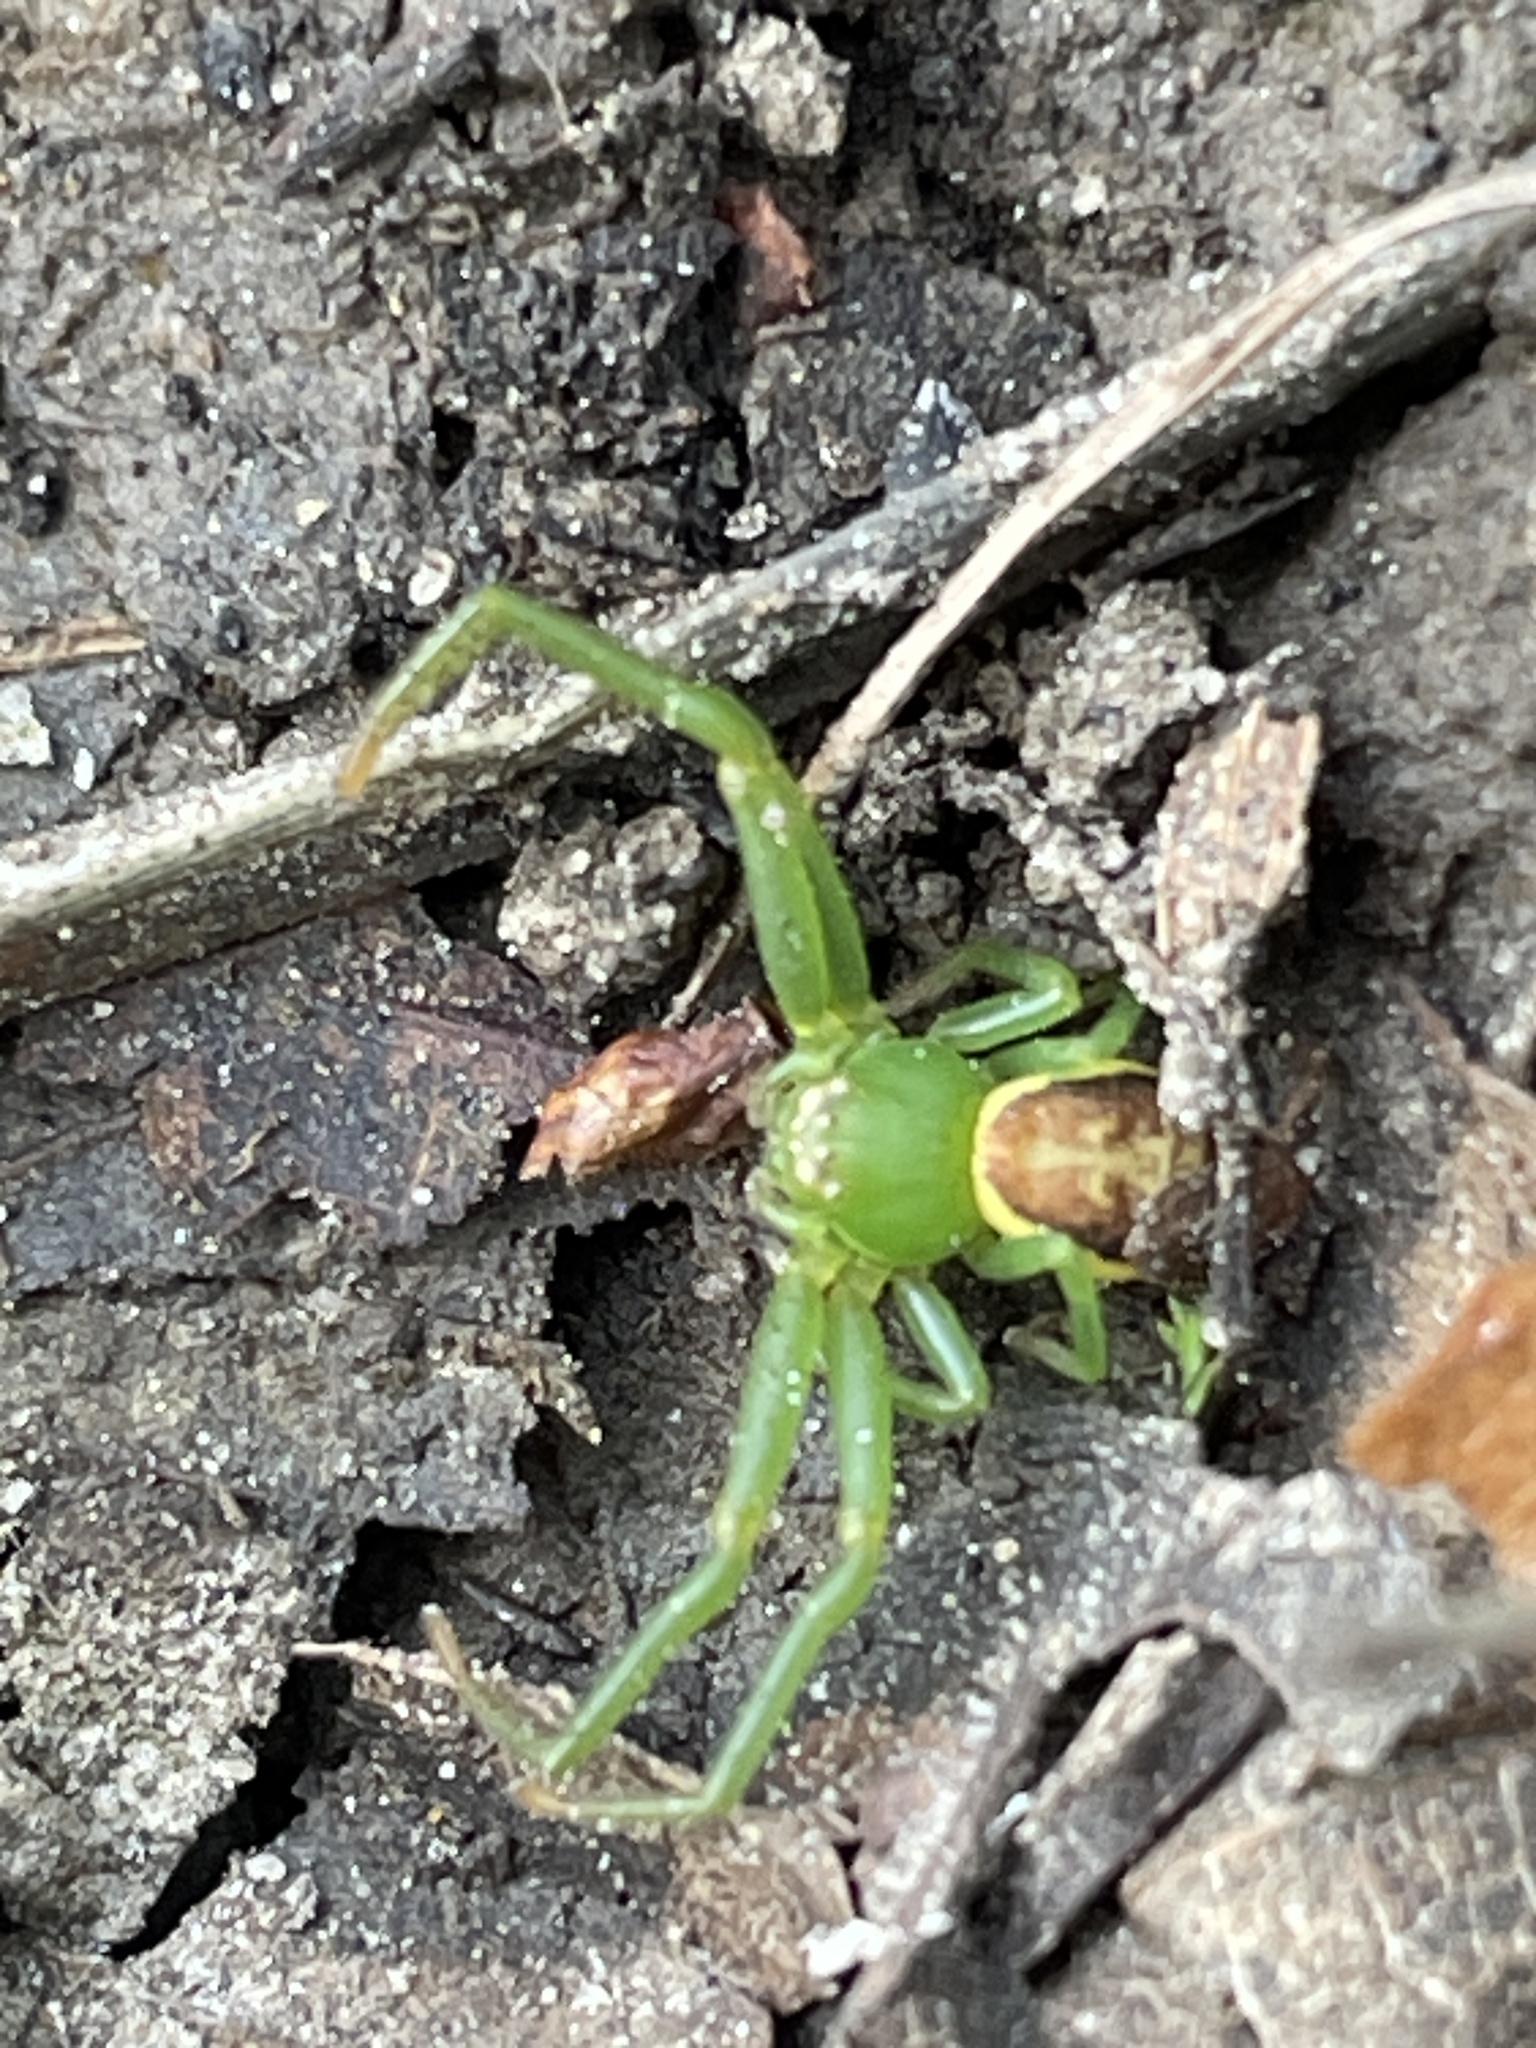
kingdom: Animalia
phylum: Arthropoda
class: Arachnida
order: Araneae
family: Thomisidae
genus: Diaea
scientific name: Diaea dorsata
